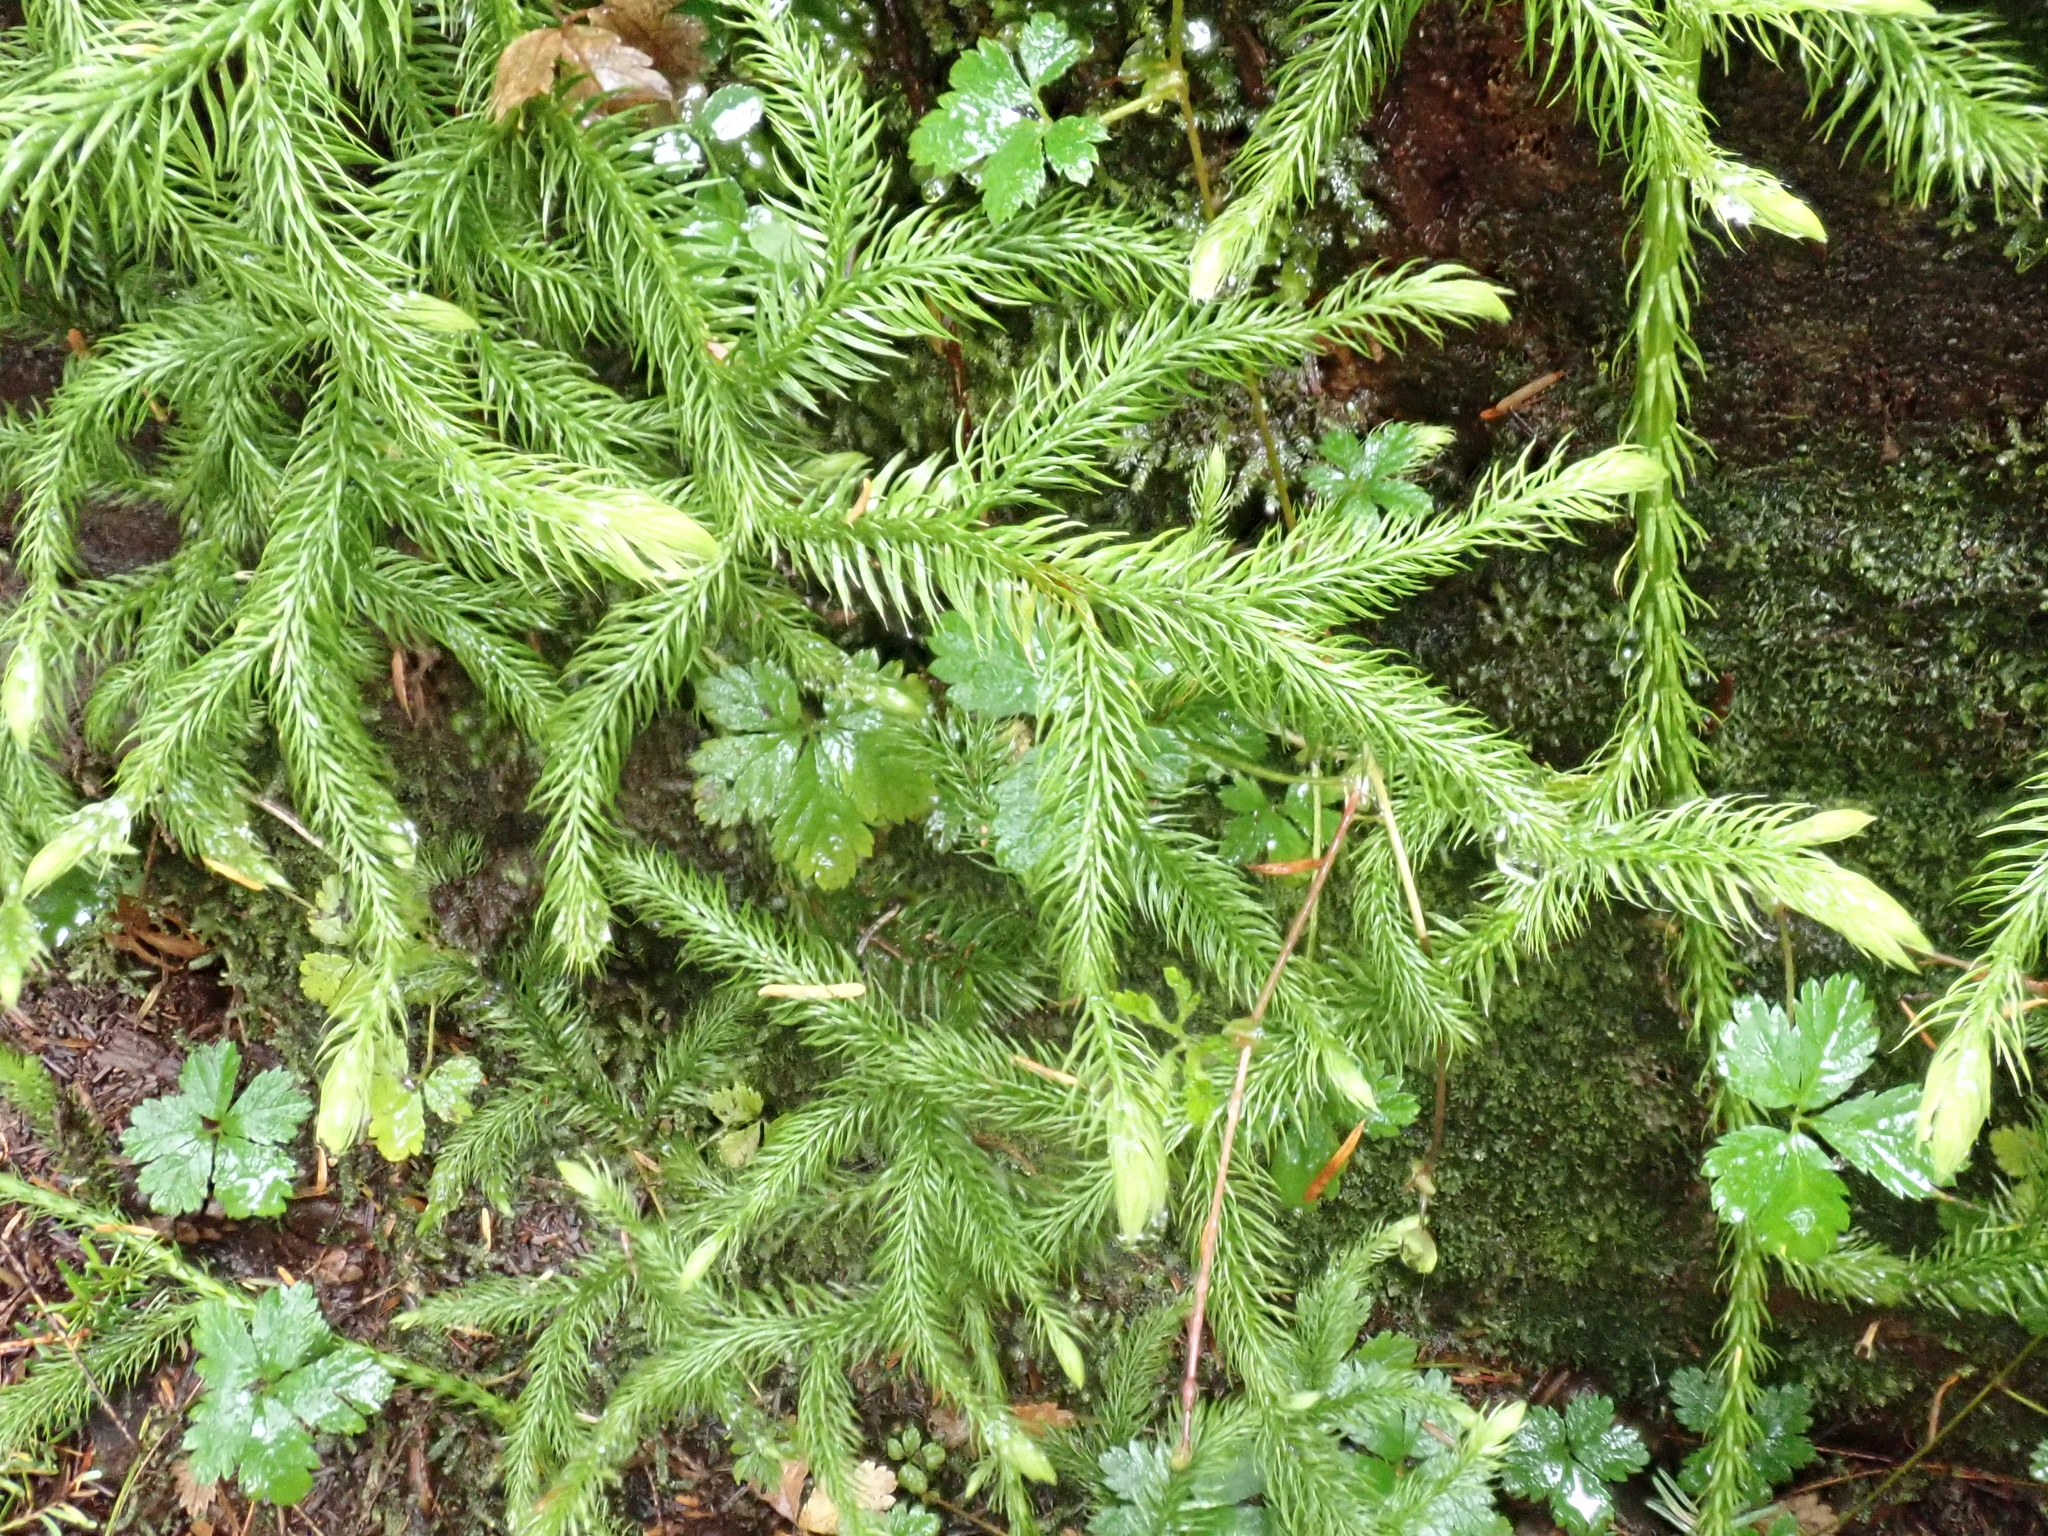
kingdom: Plantae
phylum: Tracheophyta
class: Lycopodiopsida
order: Lycopodiales
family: Lycopodiaceae
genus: Lycopodium
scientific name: Lycopodium clavatum
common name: Stag's-horn clubmoss
